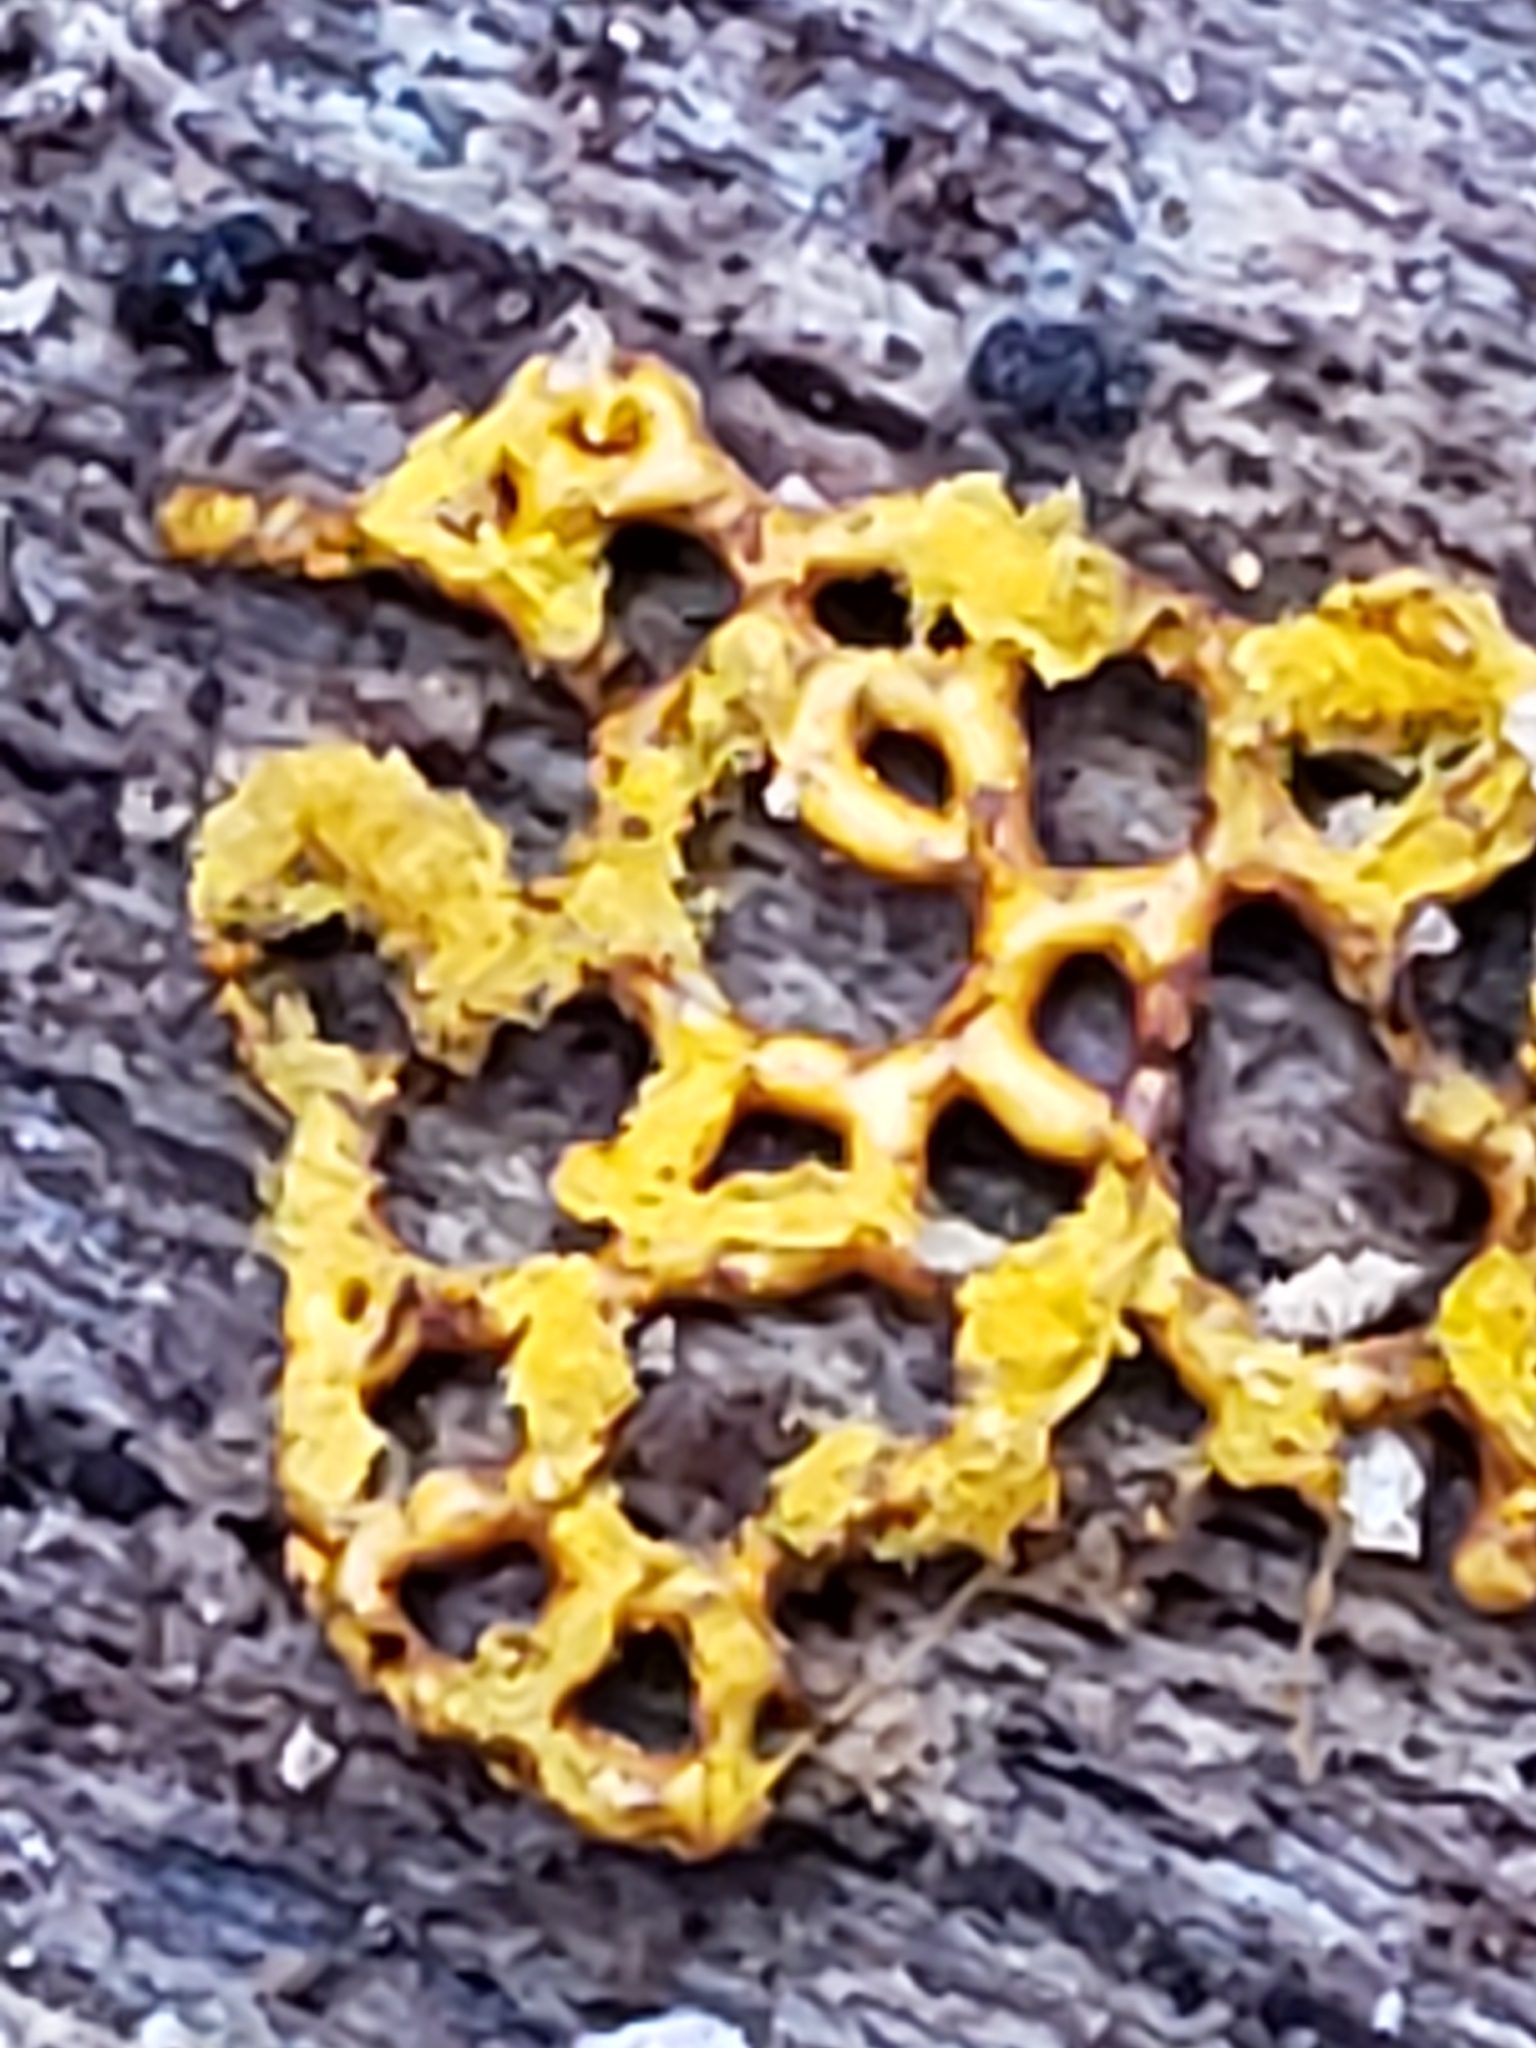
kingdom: Protozoa
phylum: Mycetozoa
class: Myxomycetes
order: Trichiales
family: Arcyriaceae
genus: Hemitrichia
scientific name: Hemitrichia serpula
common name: Pretzel slime mold
